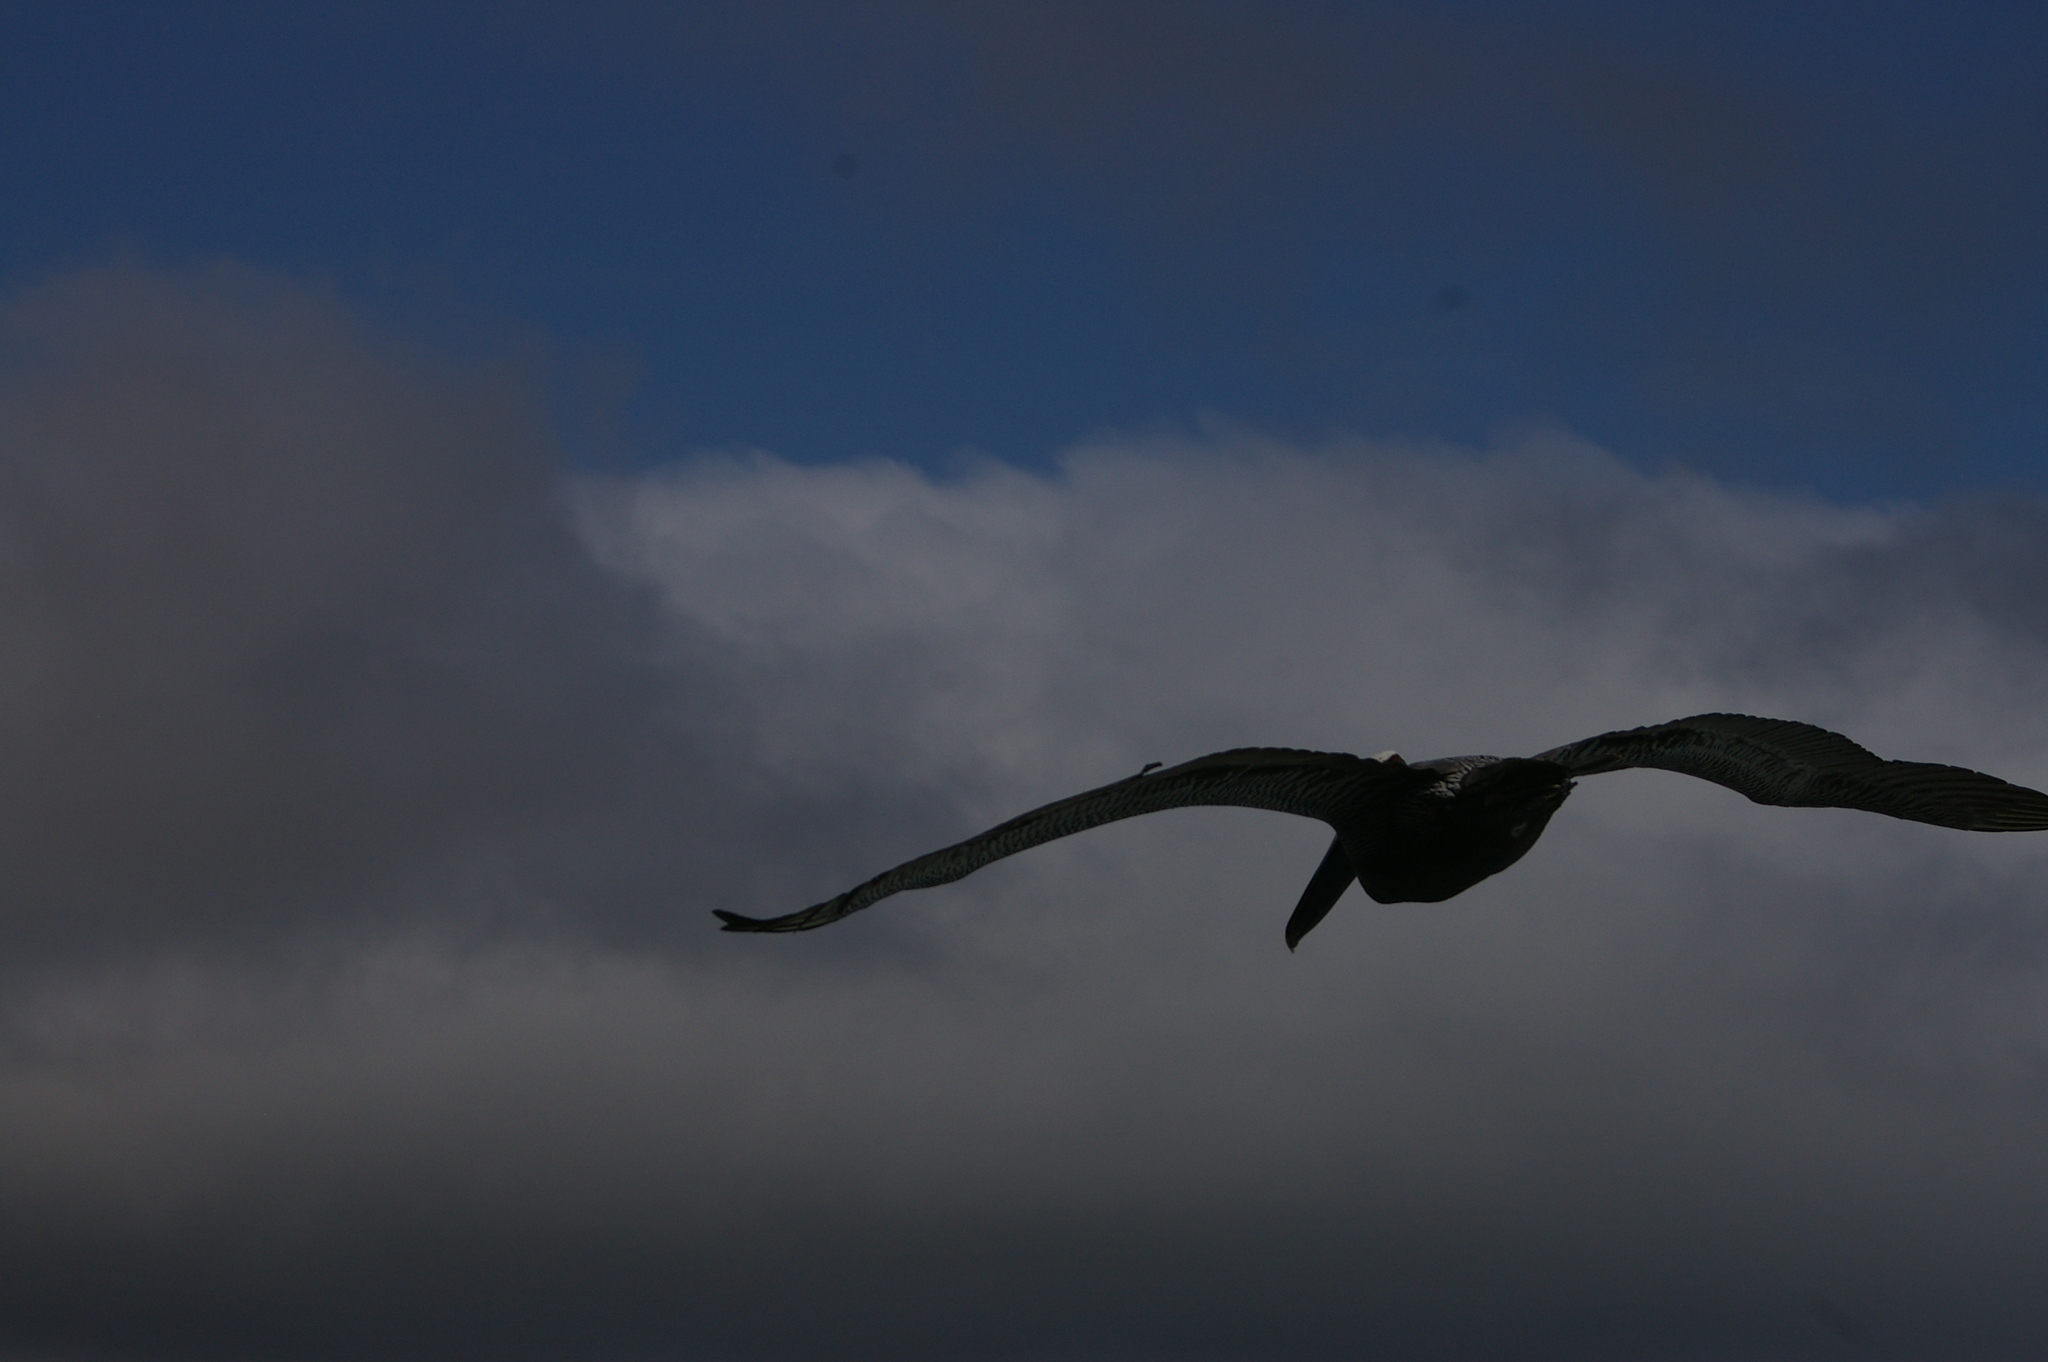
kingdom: Animalia
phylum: Chordata
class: Aves
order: Pelecaniformes
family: Pelecanidae
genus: Pelecanus
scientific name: Pelecanus occidentalis
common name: Brown pelican
